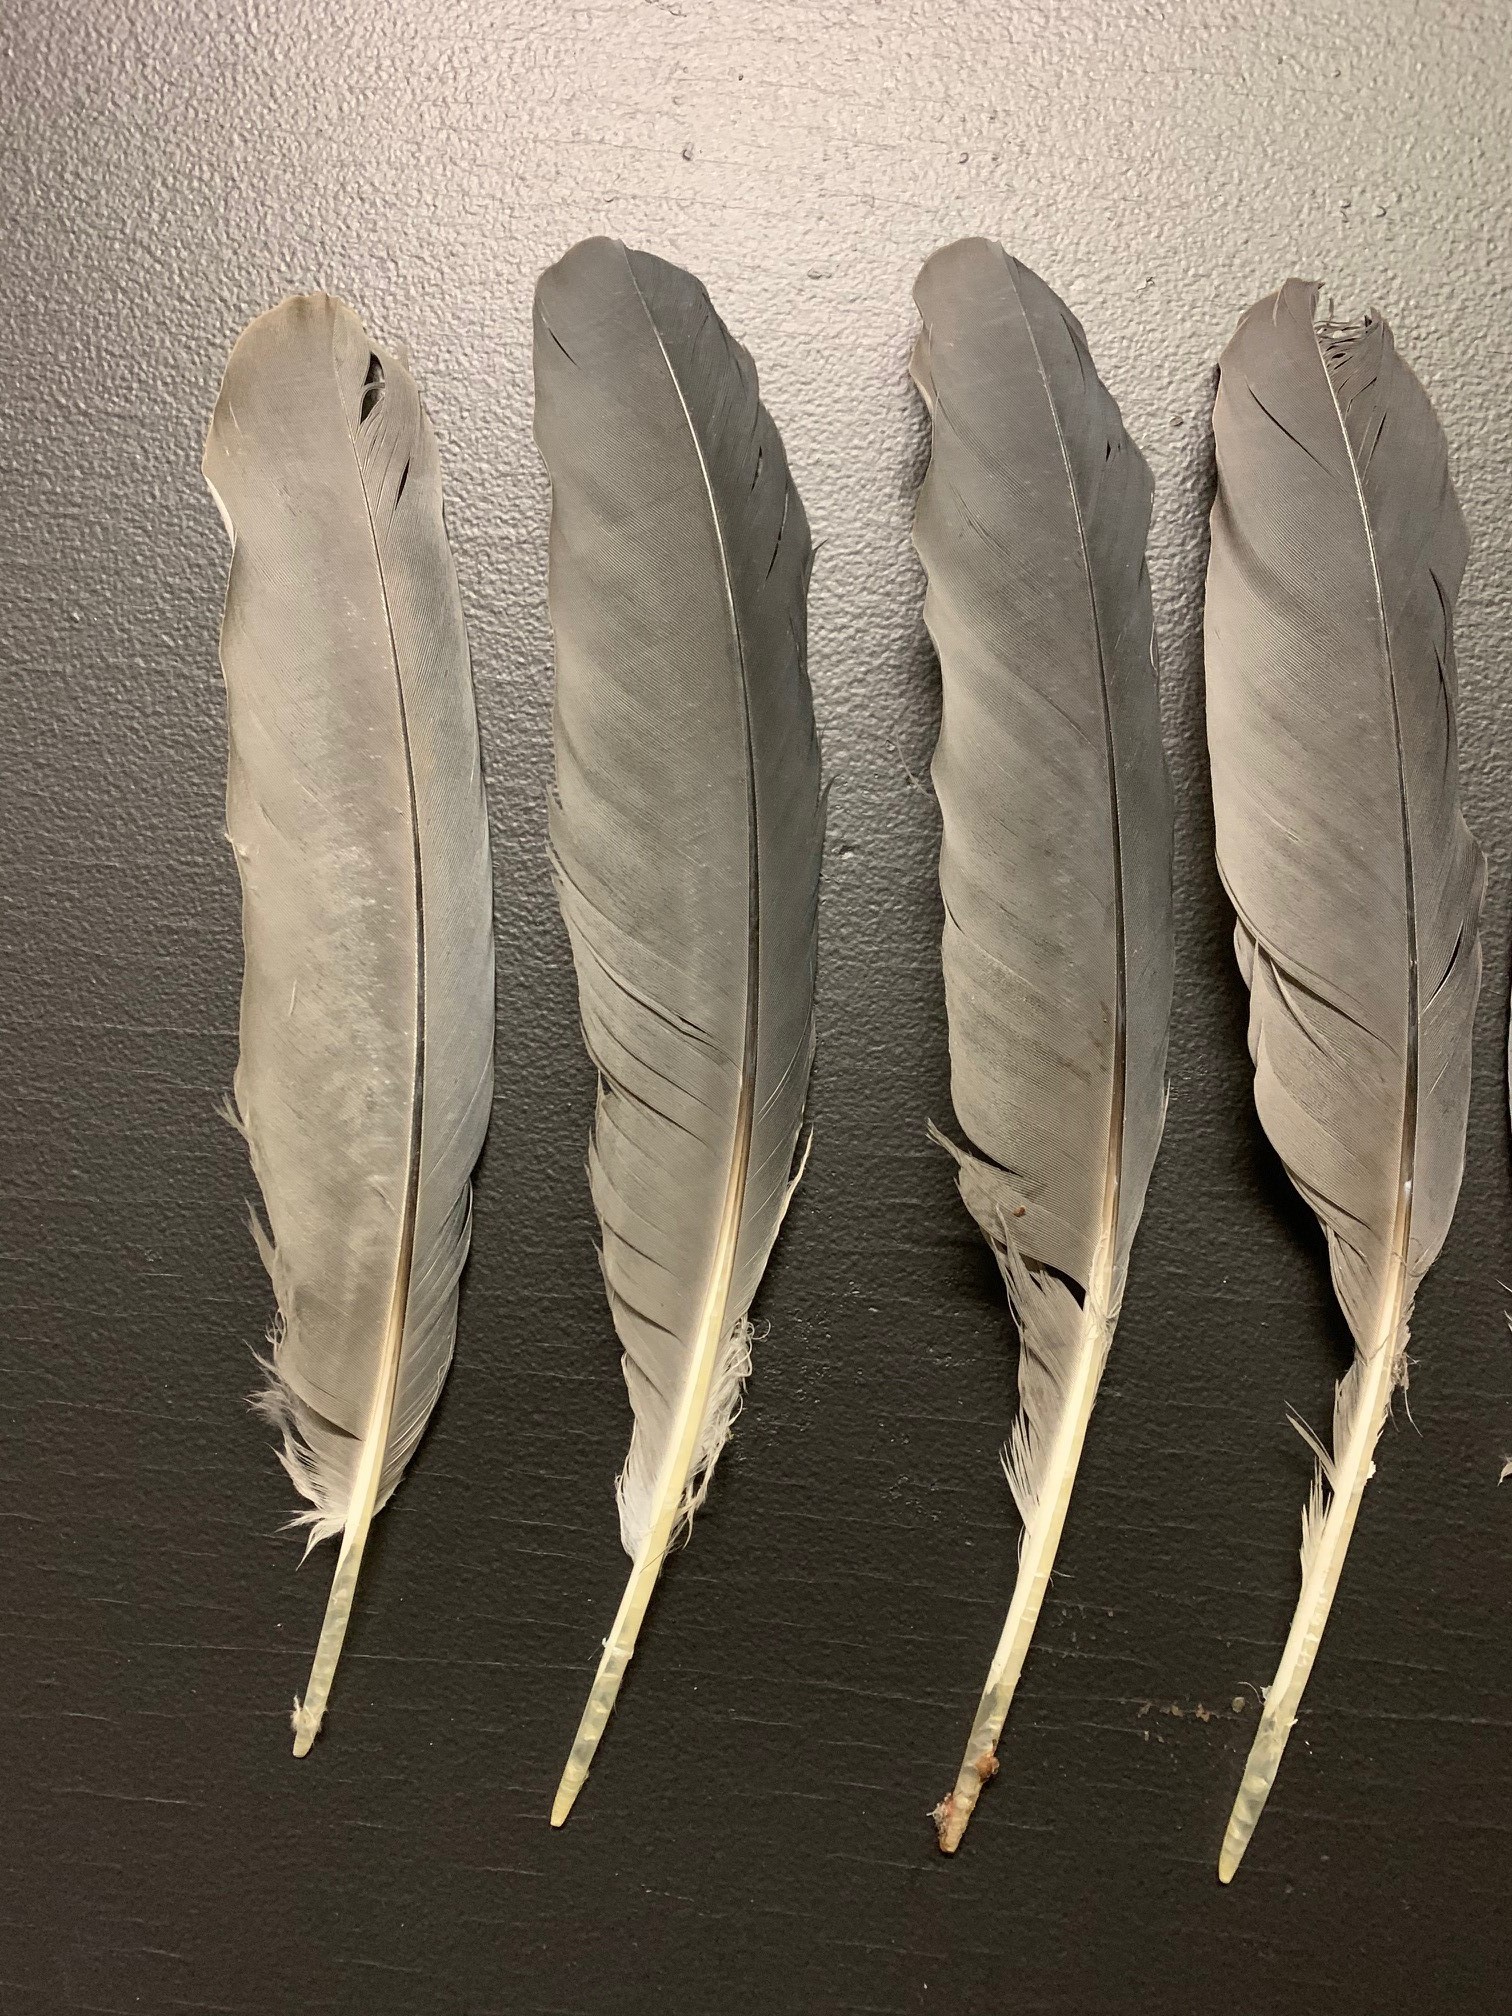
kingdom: Animalia
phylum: Chordata
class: Aves
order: Pelecaniformes
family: Ardeidae
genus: Ardea
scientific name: Ardea herodias
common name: Great blue heron
